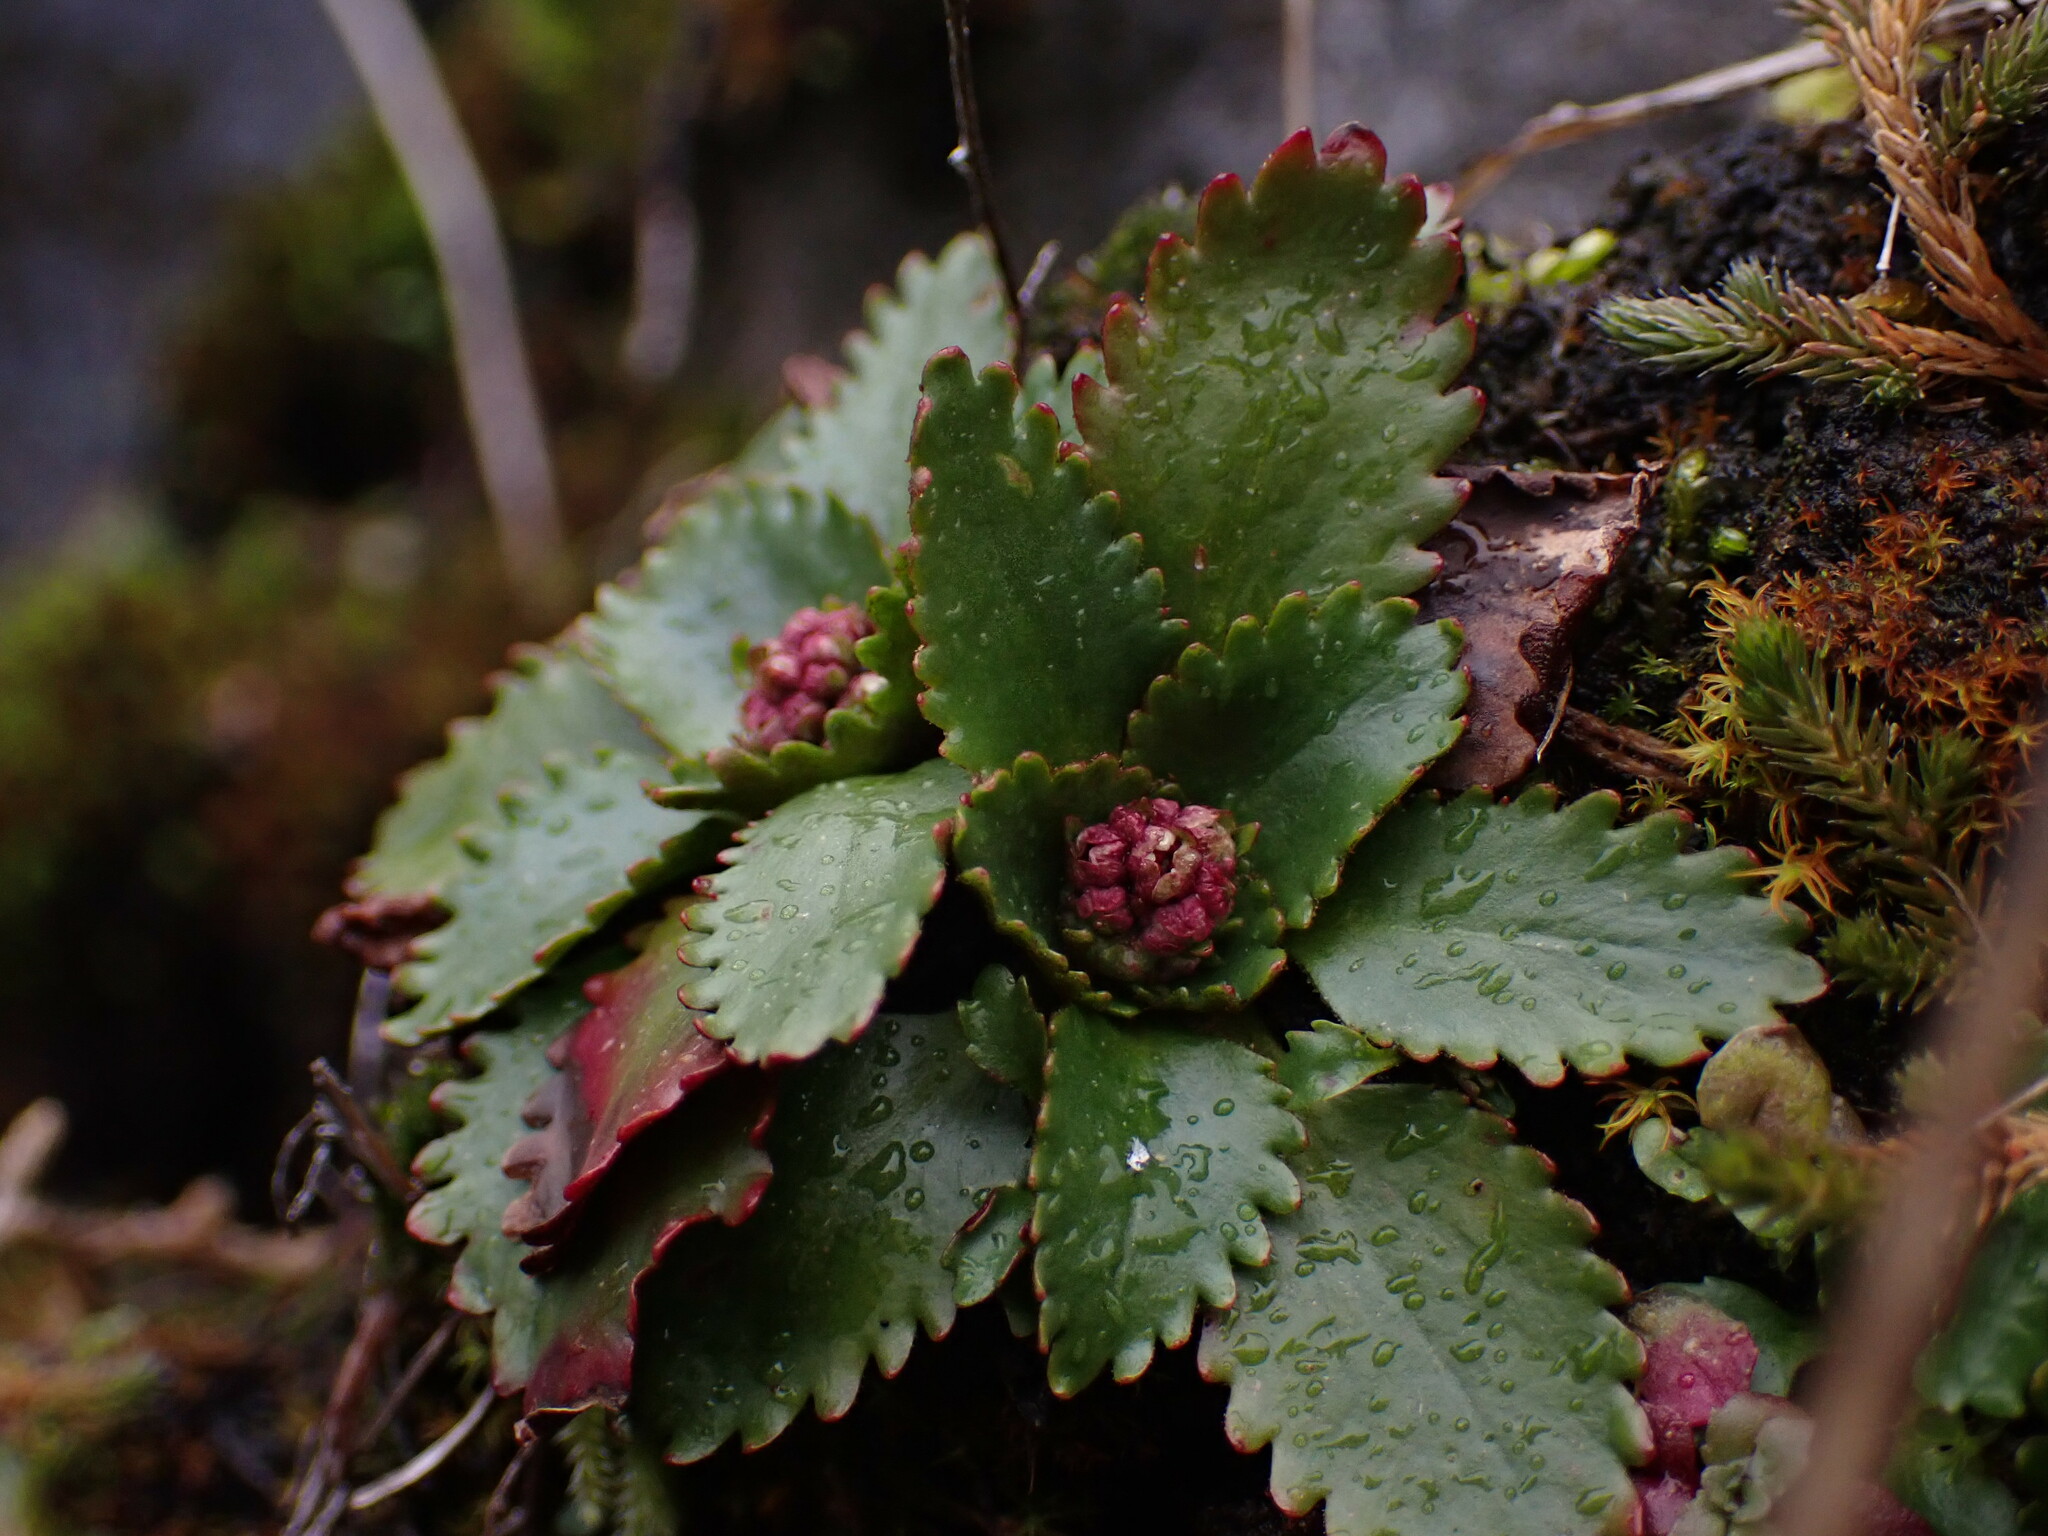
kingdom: Plantae
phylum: Tracheophyta
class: Magnoliopsida
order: Saxifragales
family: Saxifragaceae
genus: Micranthes
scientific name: Micranthes rufidula
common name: Rustyhair saxifrage
